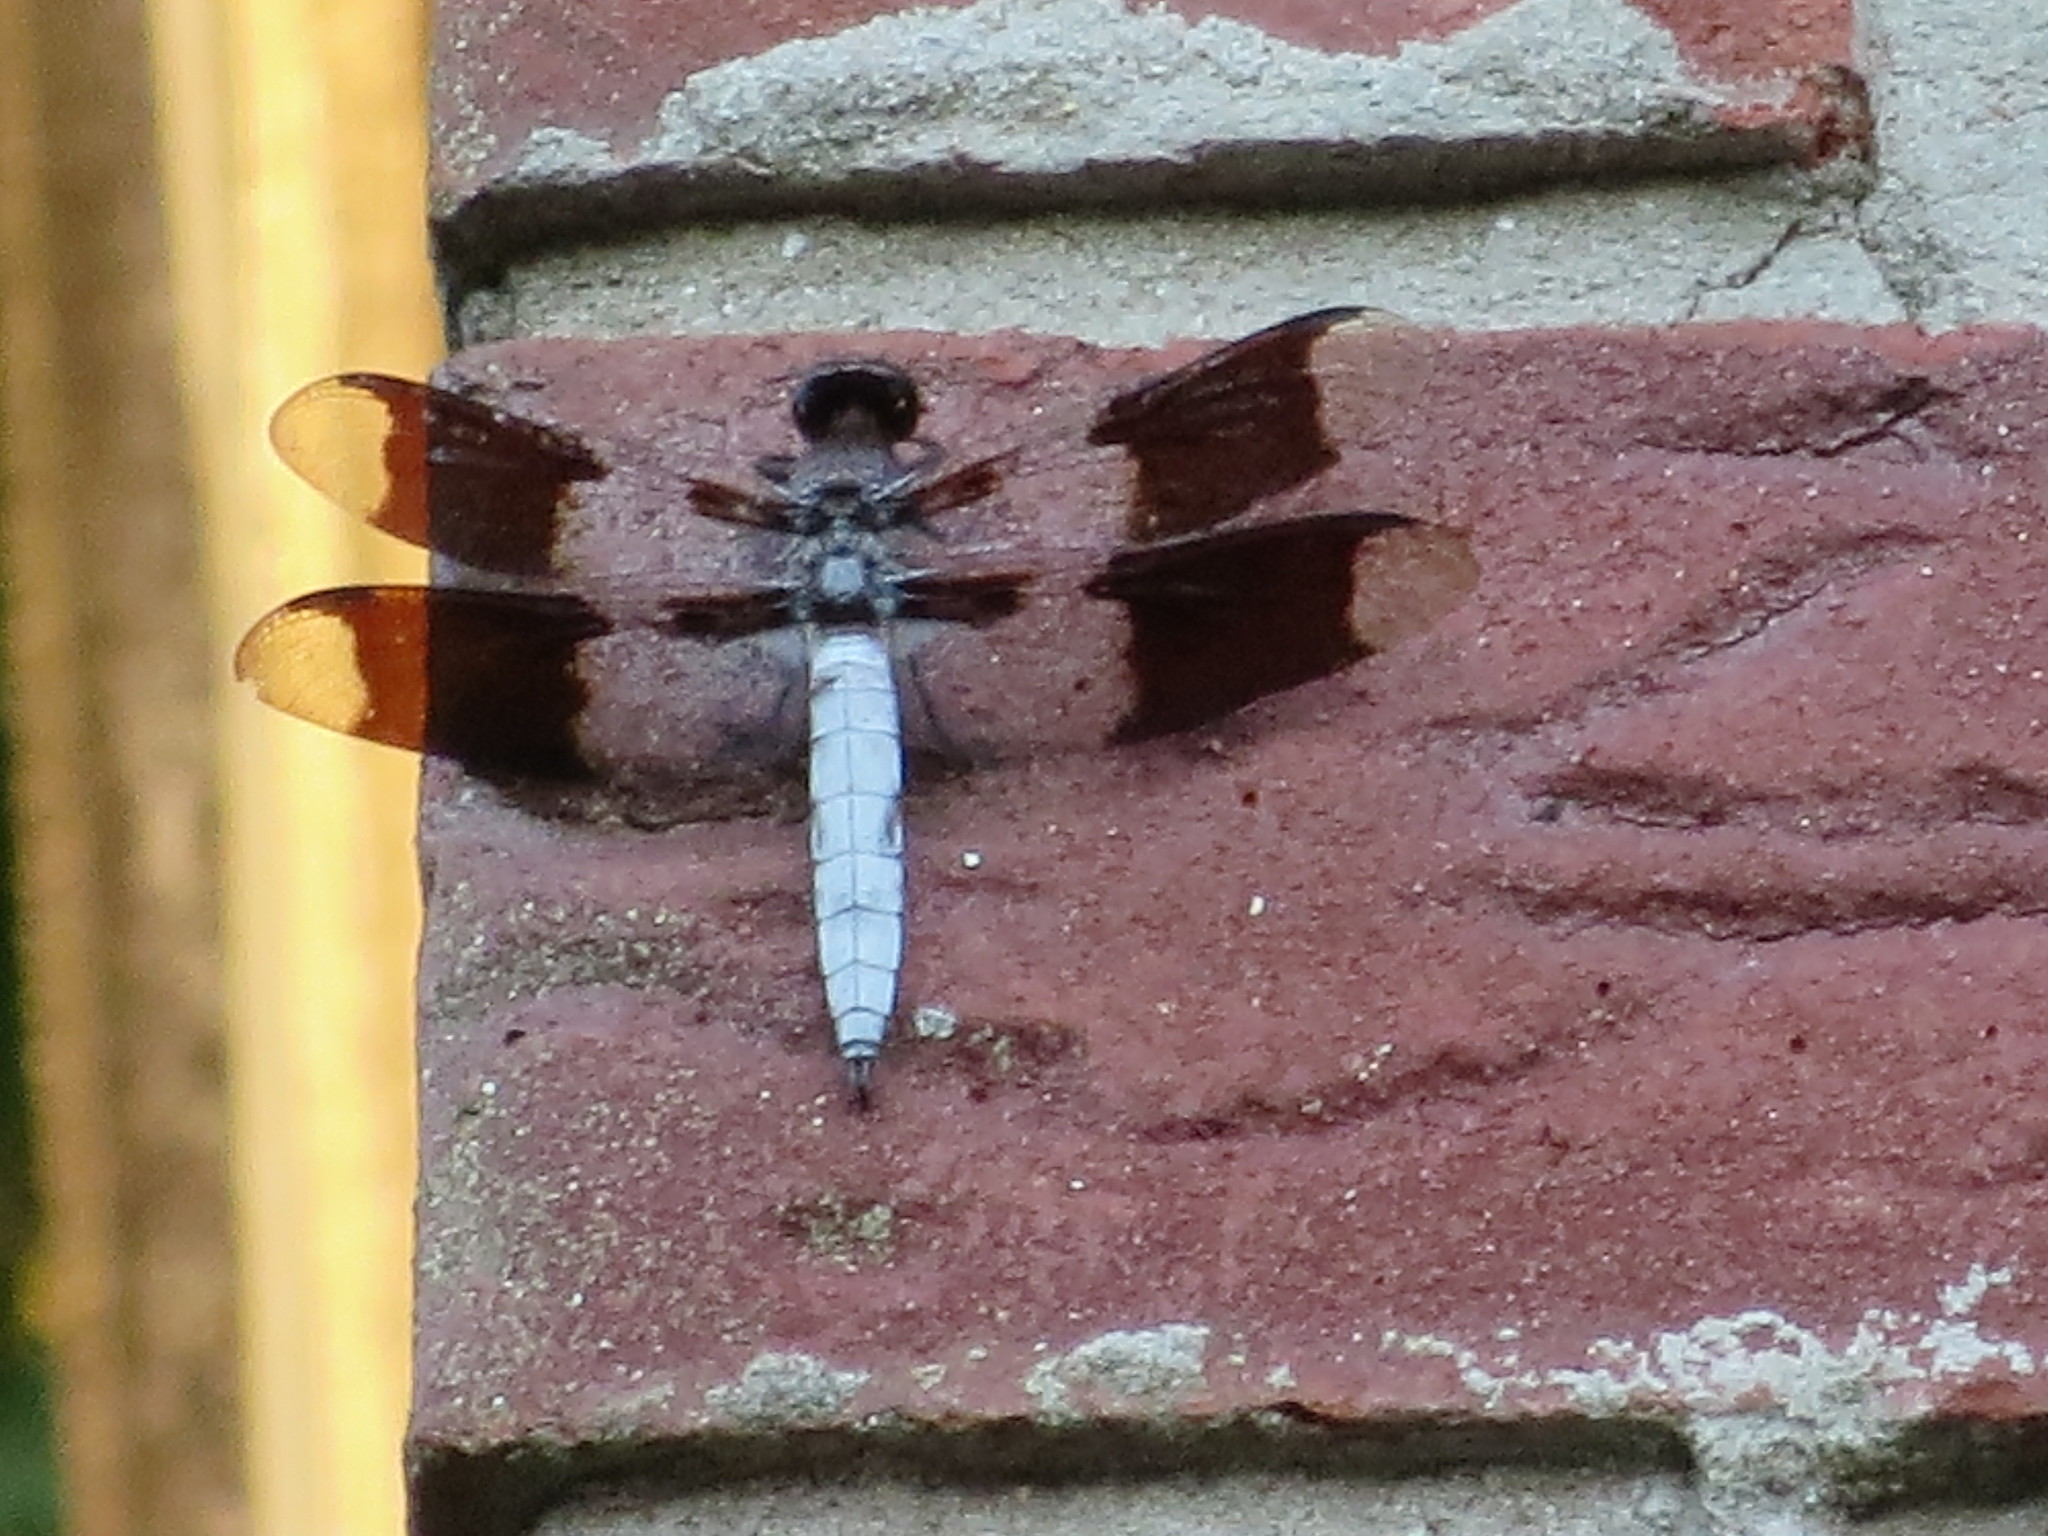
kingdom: Animalia
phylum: Arthropoda
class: Insecta
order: Odonata
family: Libellulidae
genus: Plathemis
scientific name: Plathemis lydia
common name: Common whitetail
